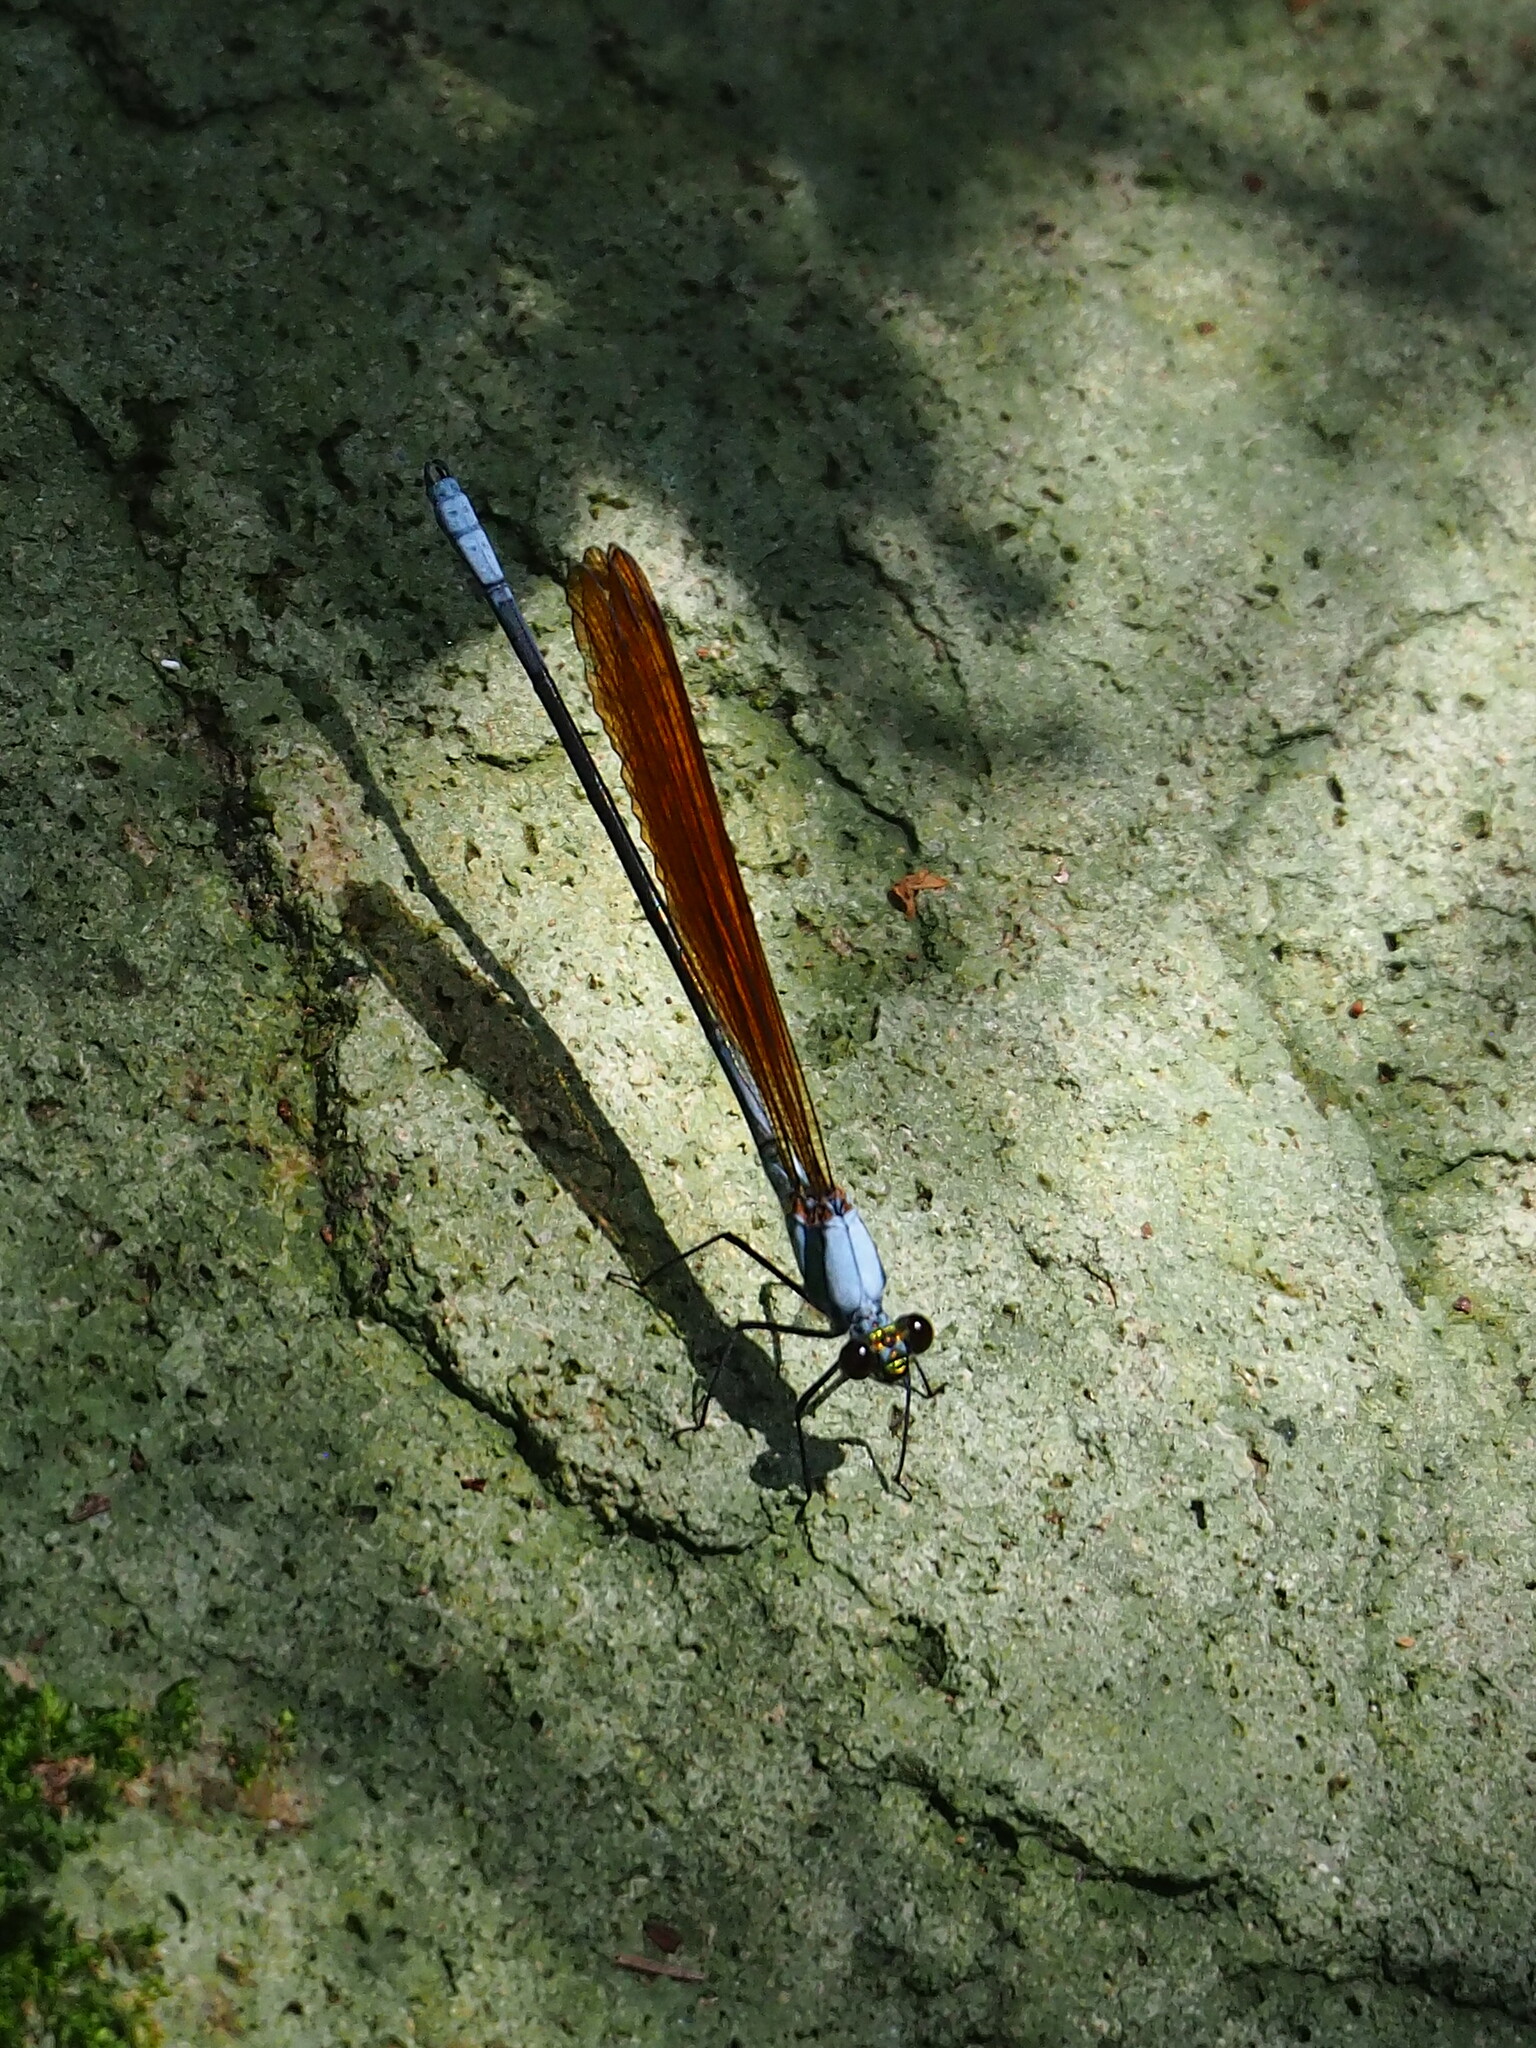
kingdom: Animalia
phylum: Arthropoda
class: Insecta
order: Odonata
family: Calopterygidae
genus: Mnais
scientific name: Mnais tenuis
